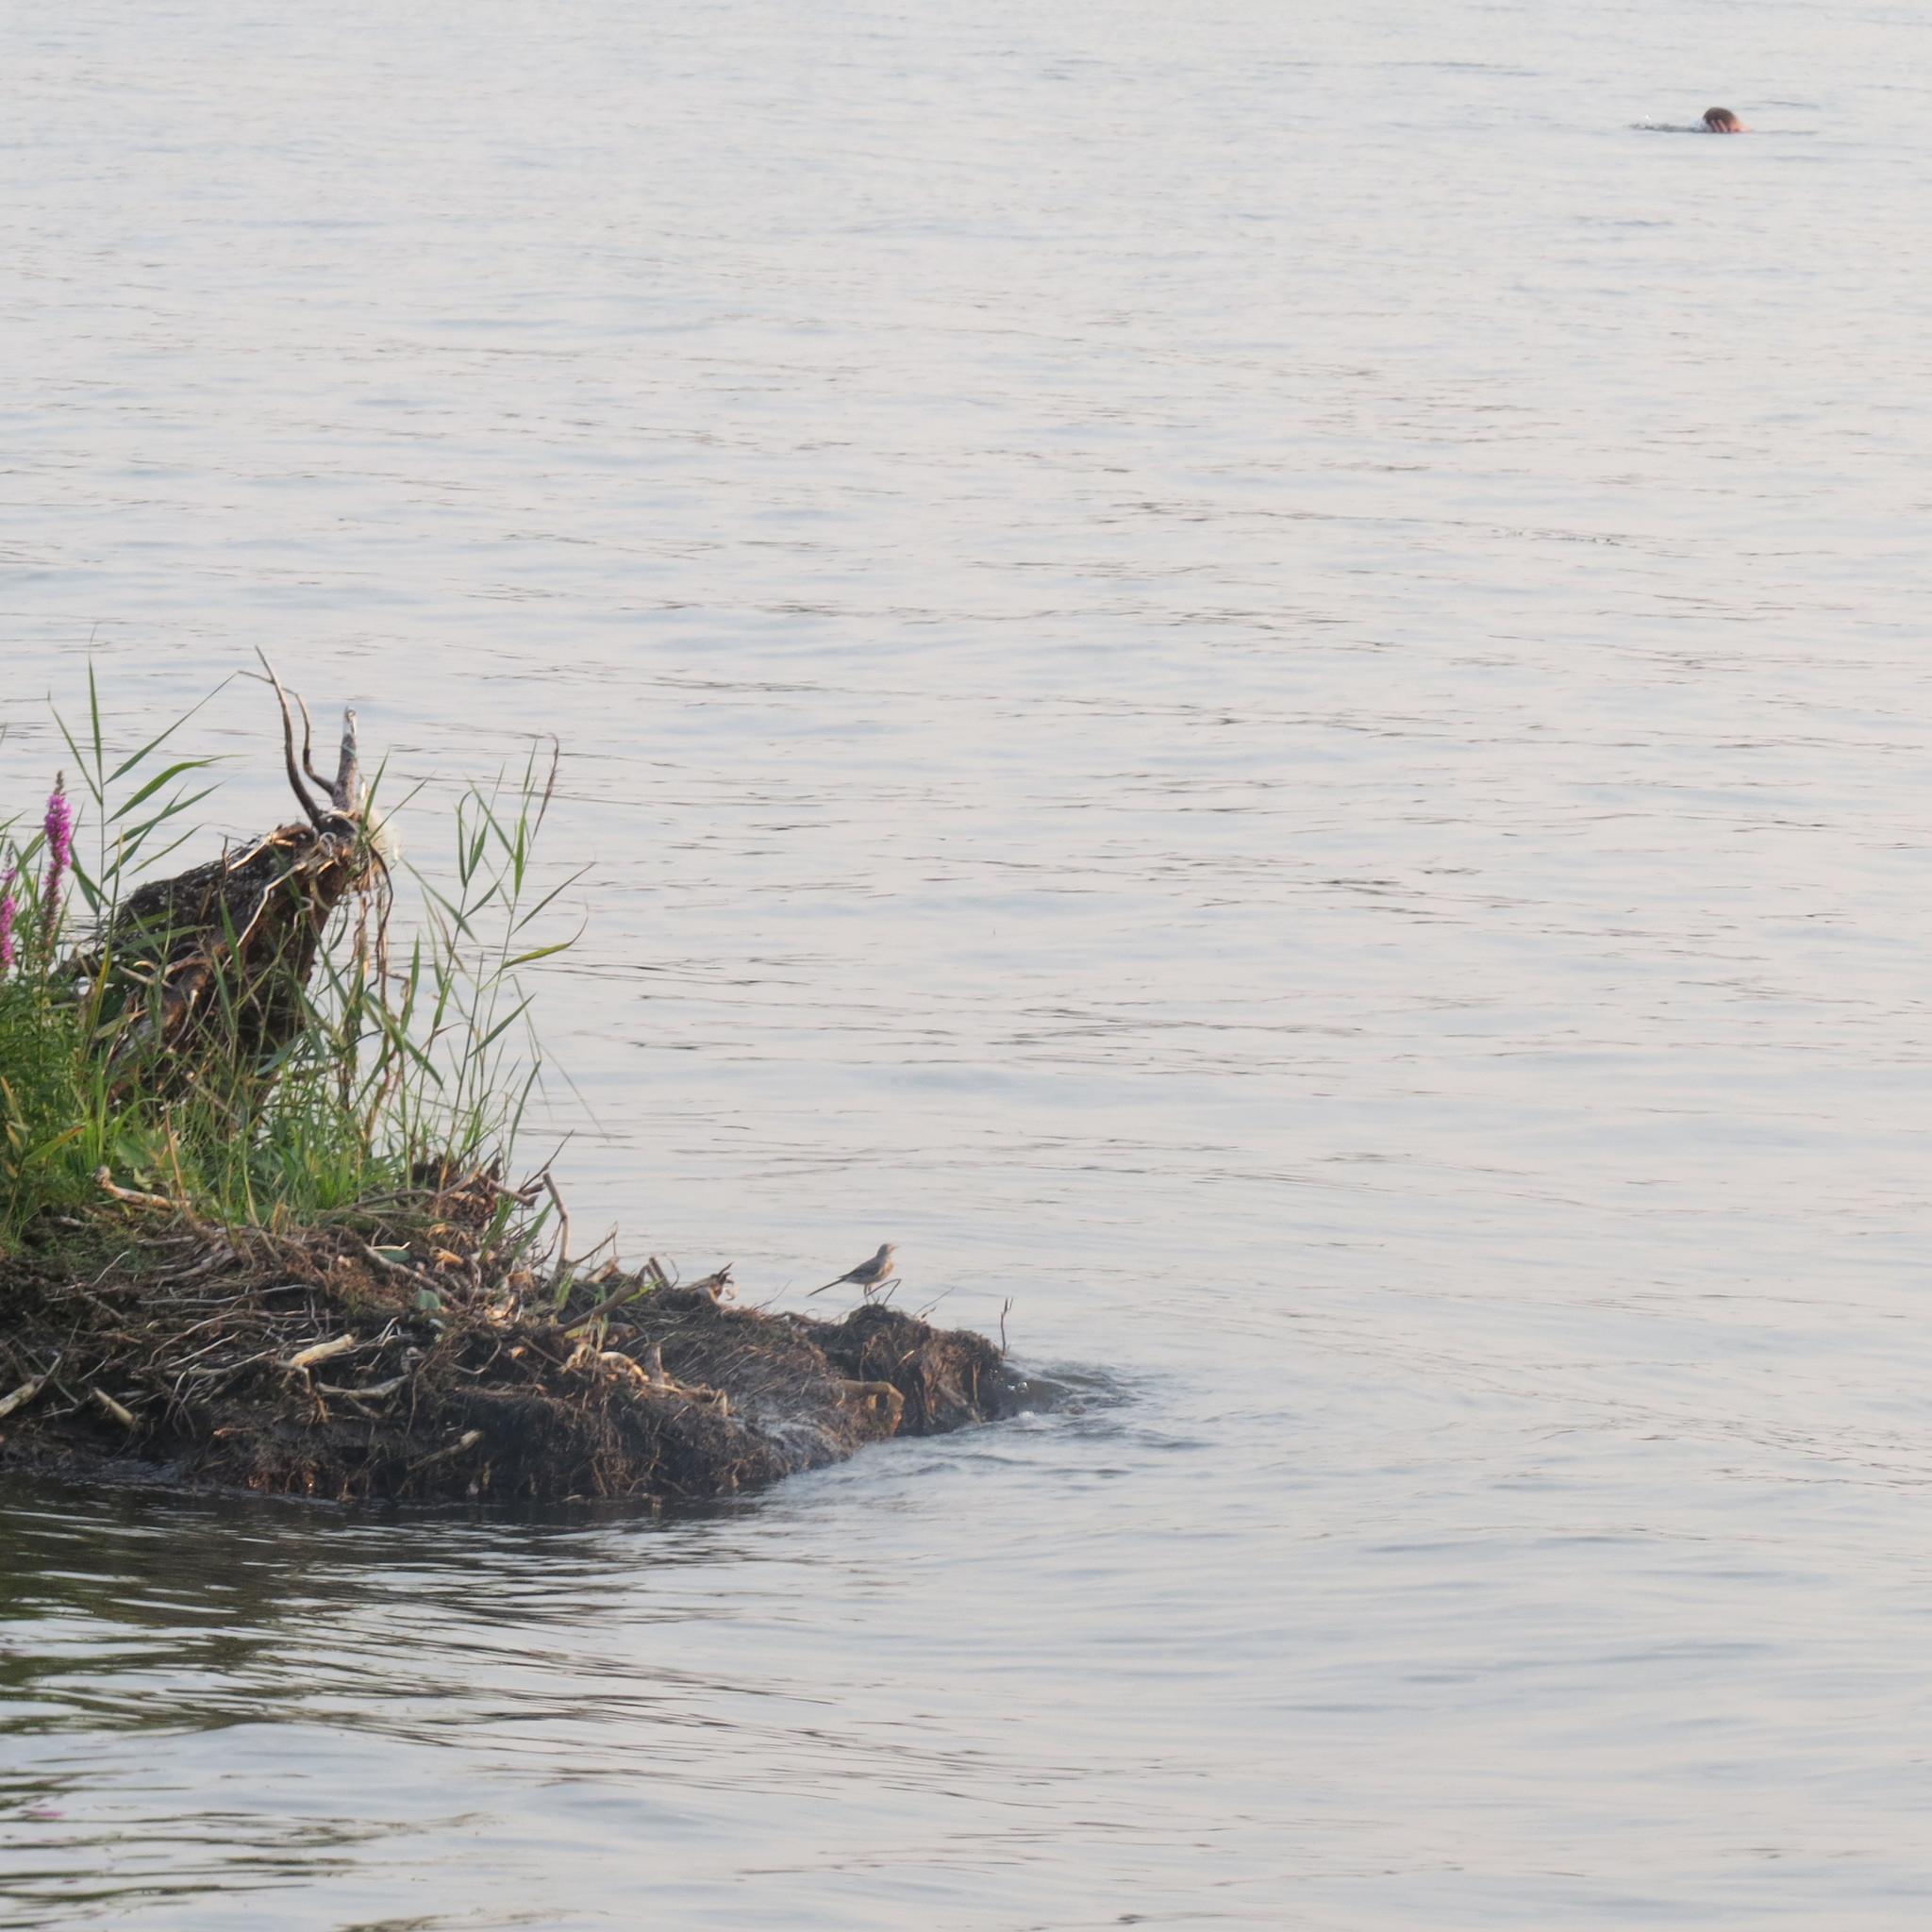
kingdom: Animalia
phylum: Chordata
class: Aves
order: Passeriformes
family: Motacillidae
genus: Motacilla
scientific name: Motacilla alba
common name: White wagtail
